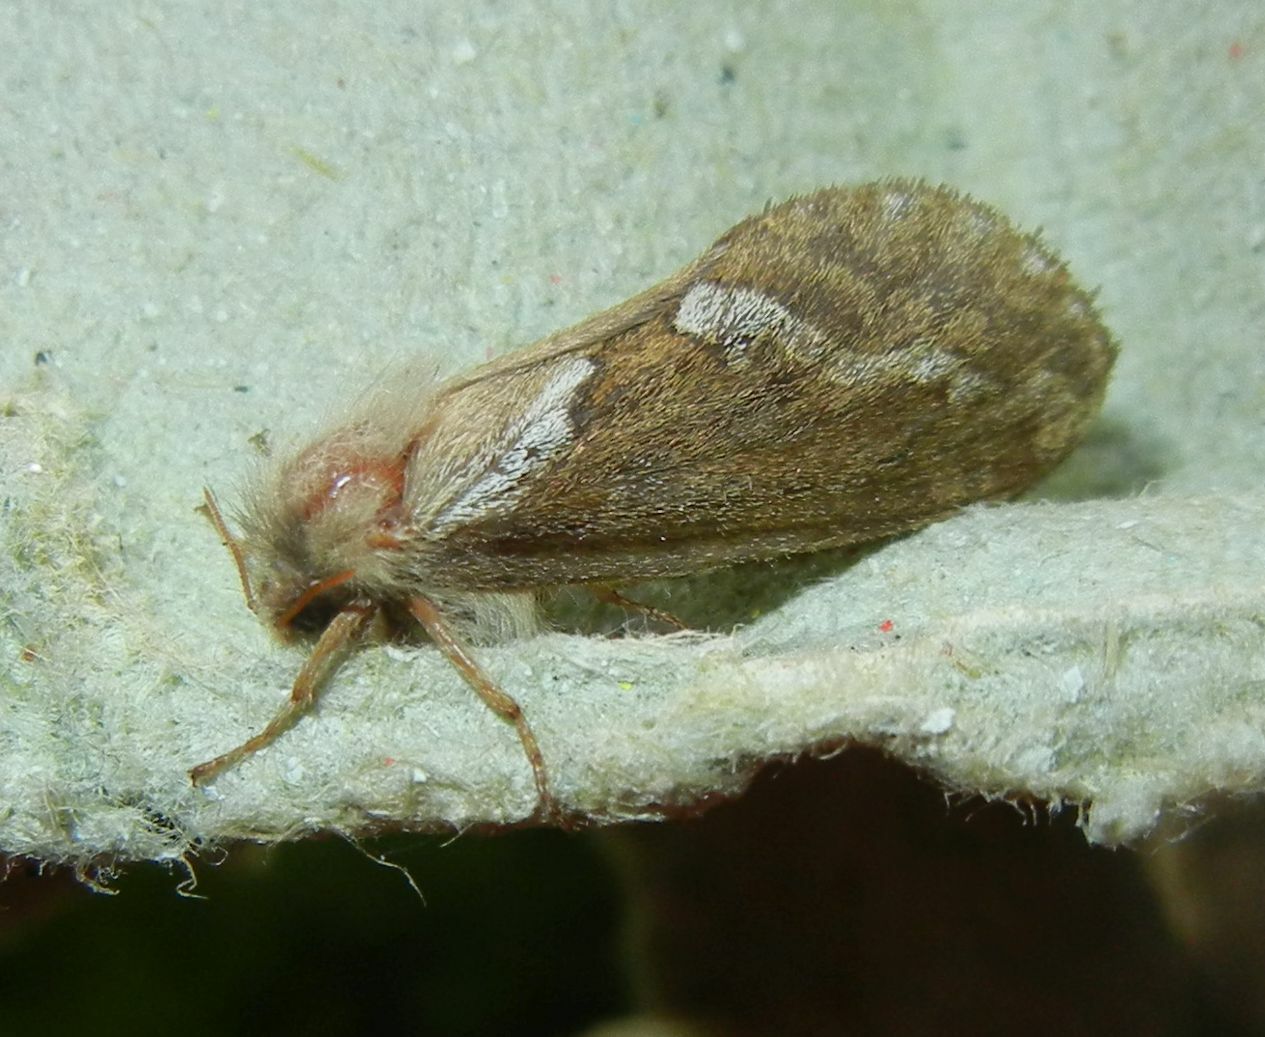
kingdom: Animalia
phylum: Arthropoda
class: Insecta
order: Lepidoptera
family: Hepialidae
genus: Korscheltellus
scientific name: Korscheltellus lupulina
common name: Common swift
